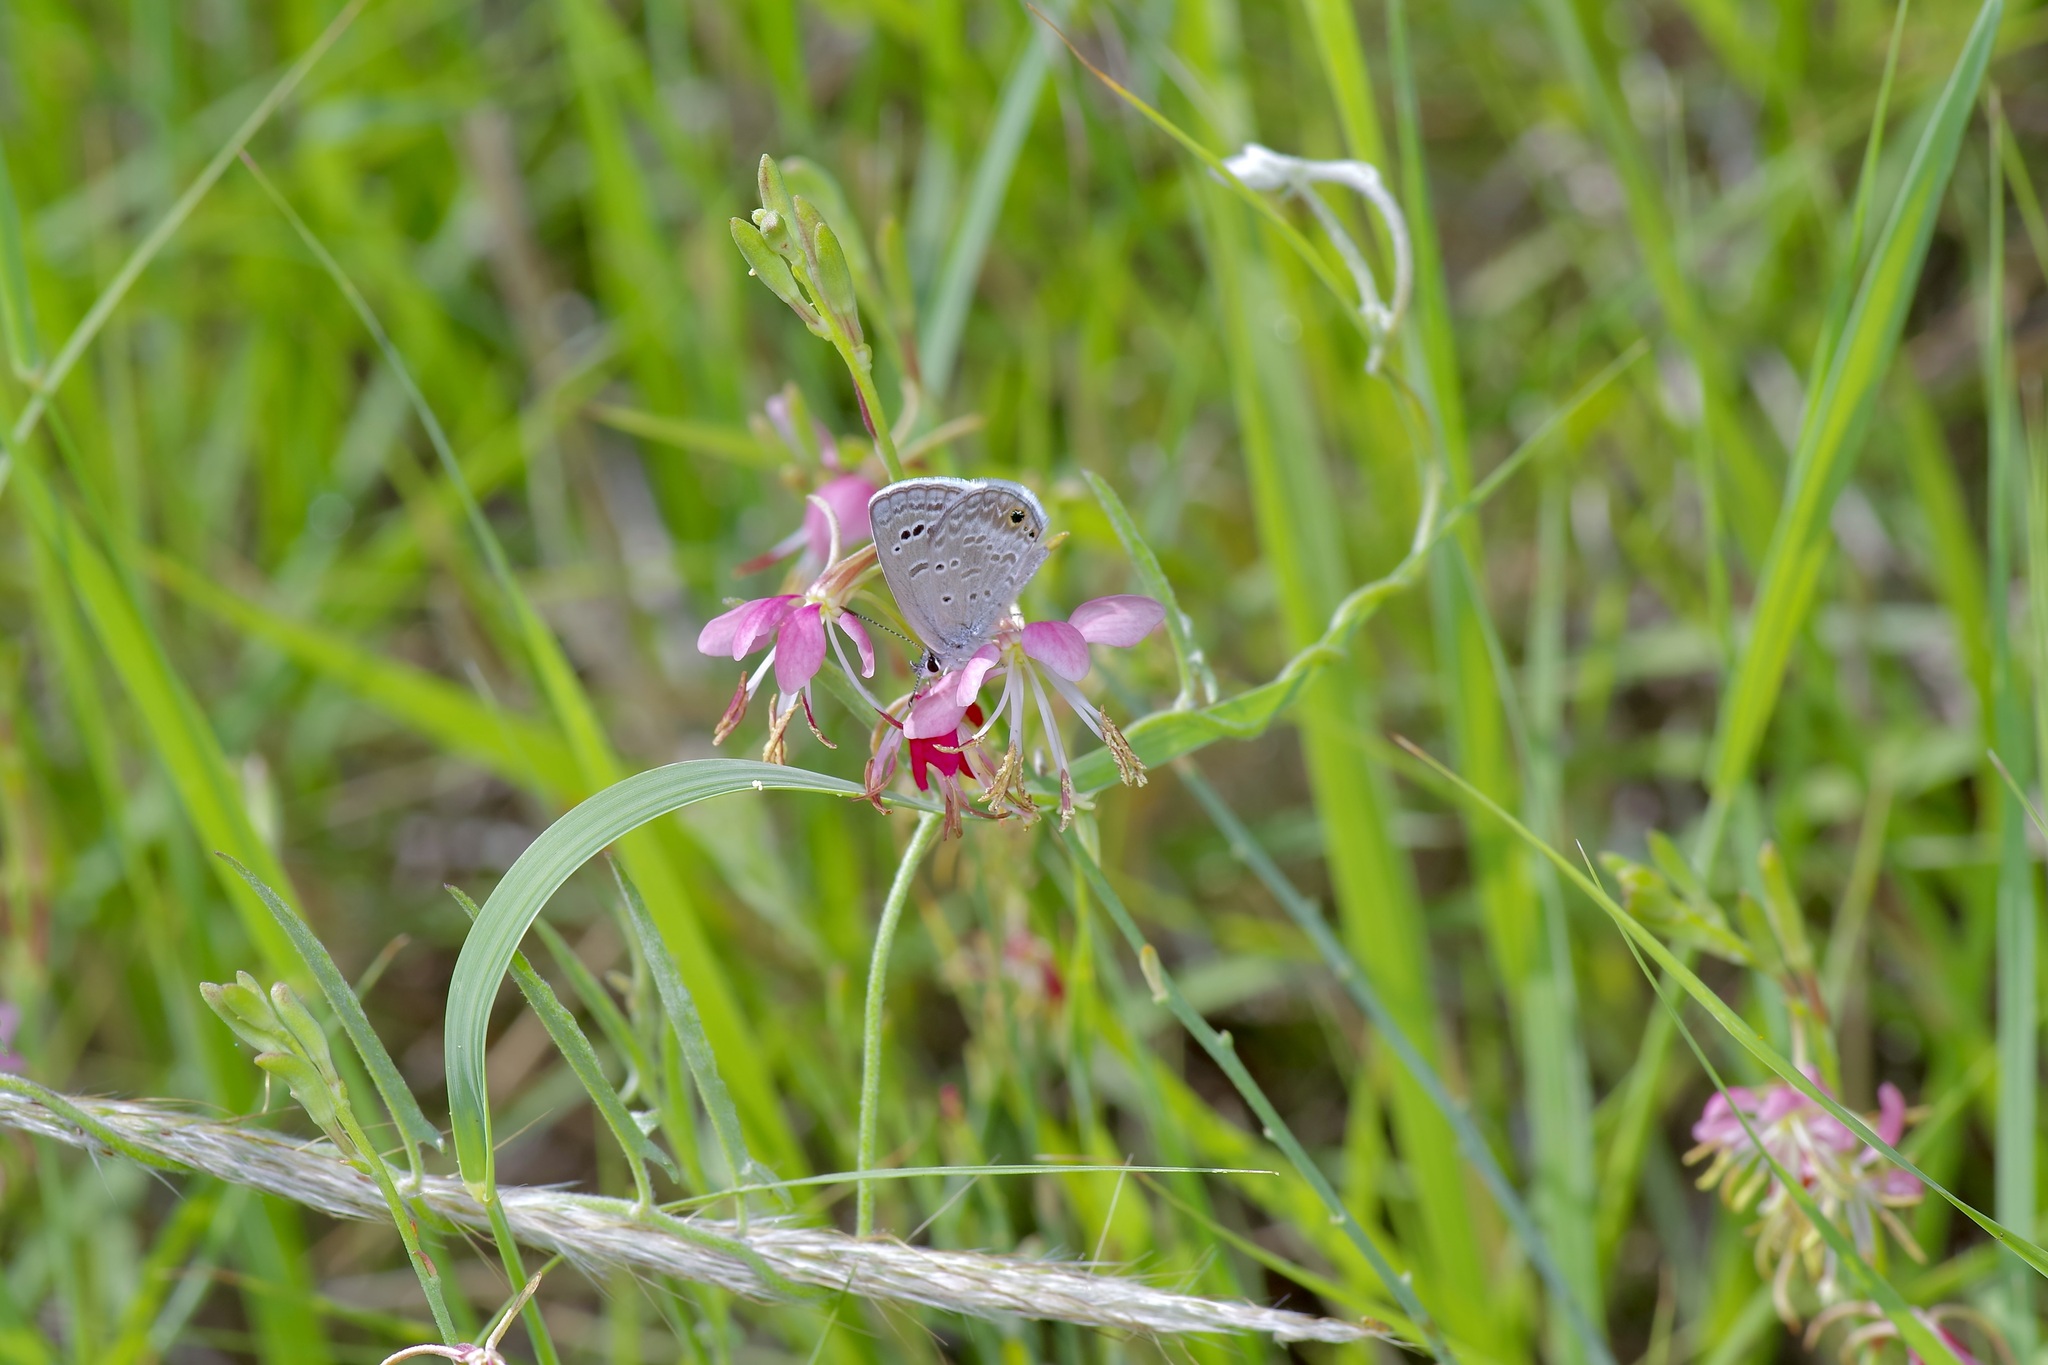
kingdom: Animalia
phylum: Arthropoda
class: Insecta
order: Lepidoptera
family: Lycaenidae
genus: Echinargus
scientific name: Echinargus isola
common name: Reakirt's blue
